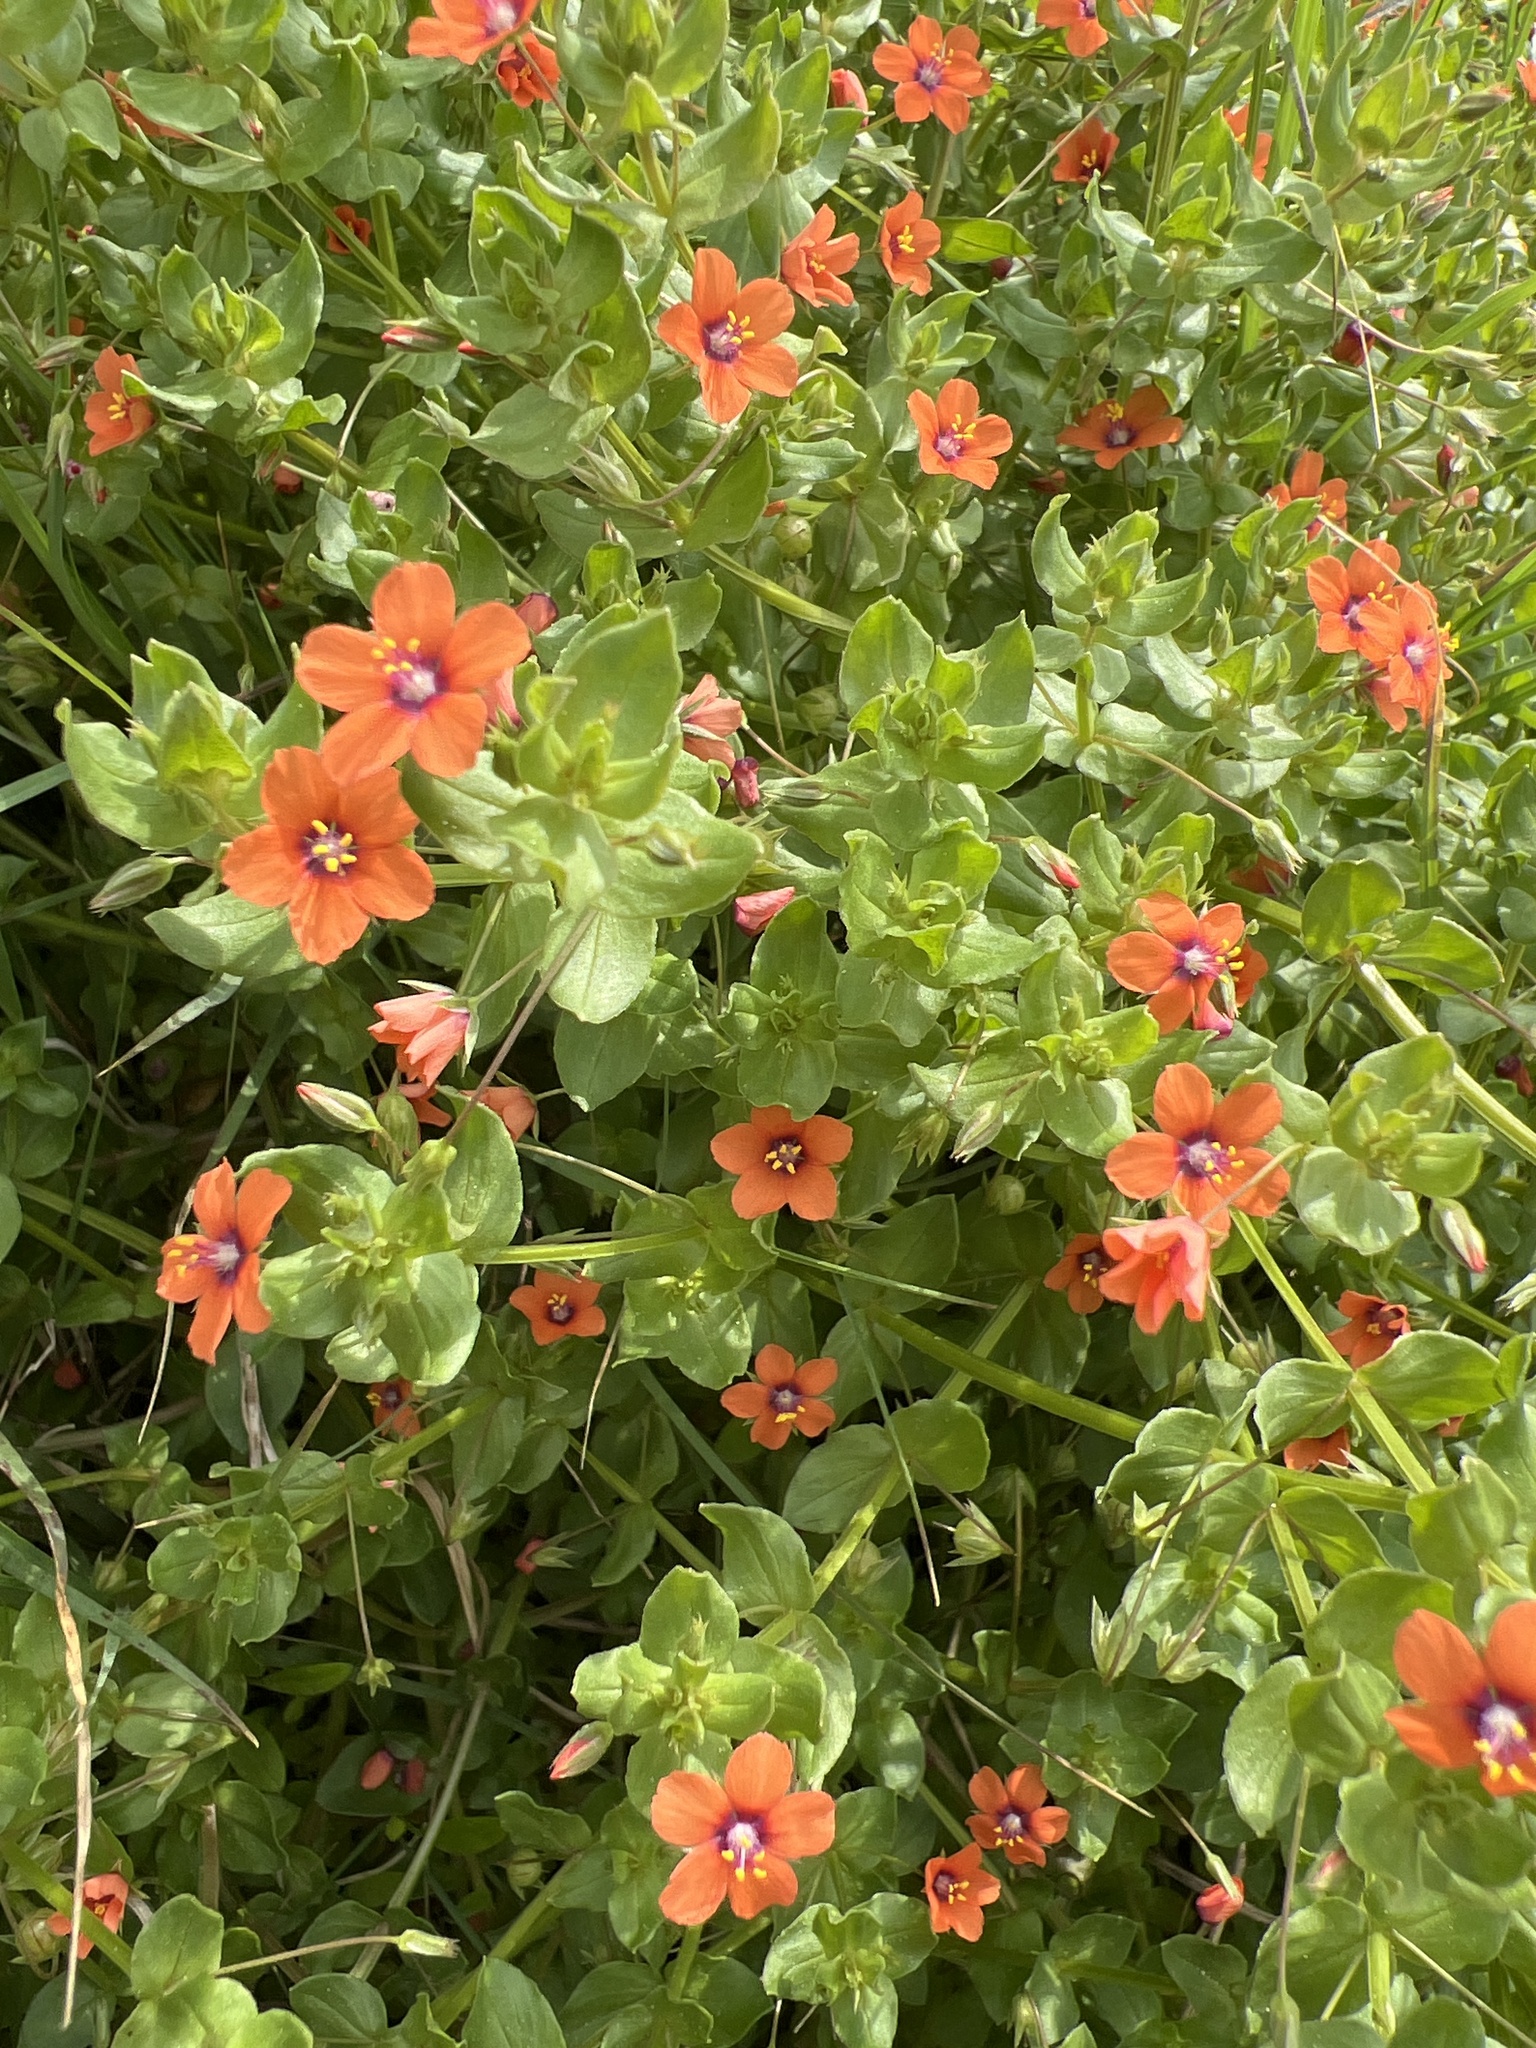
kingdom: Plantae
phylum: Tracheophyta
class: Magnoliopsida
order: Ericales
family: Primulaceae
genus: Lysimachia
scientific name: Lysimachia arvensis
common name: Scarlet pimpernel
